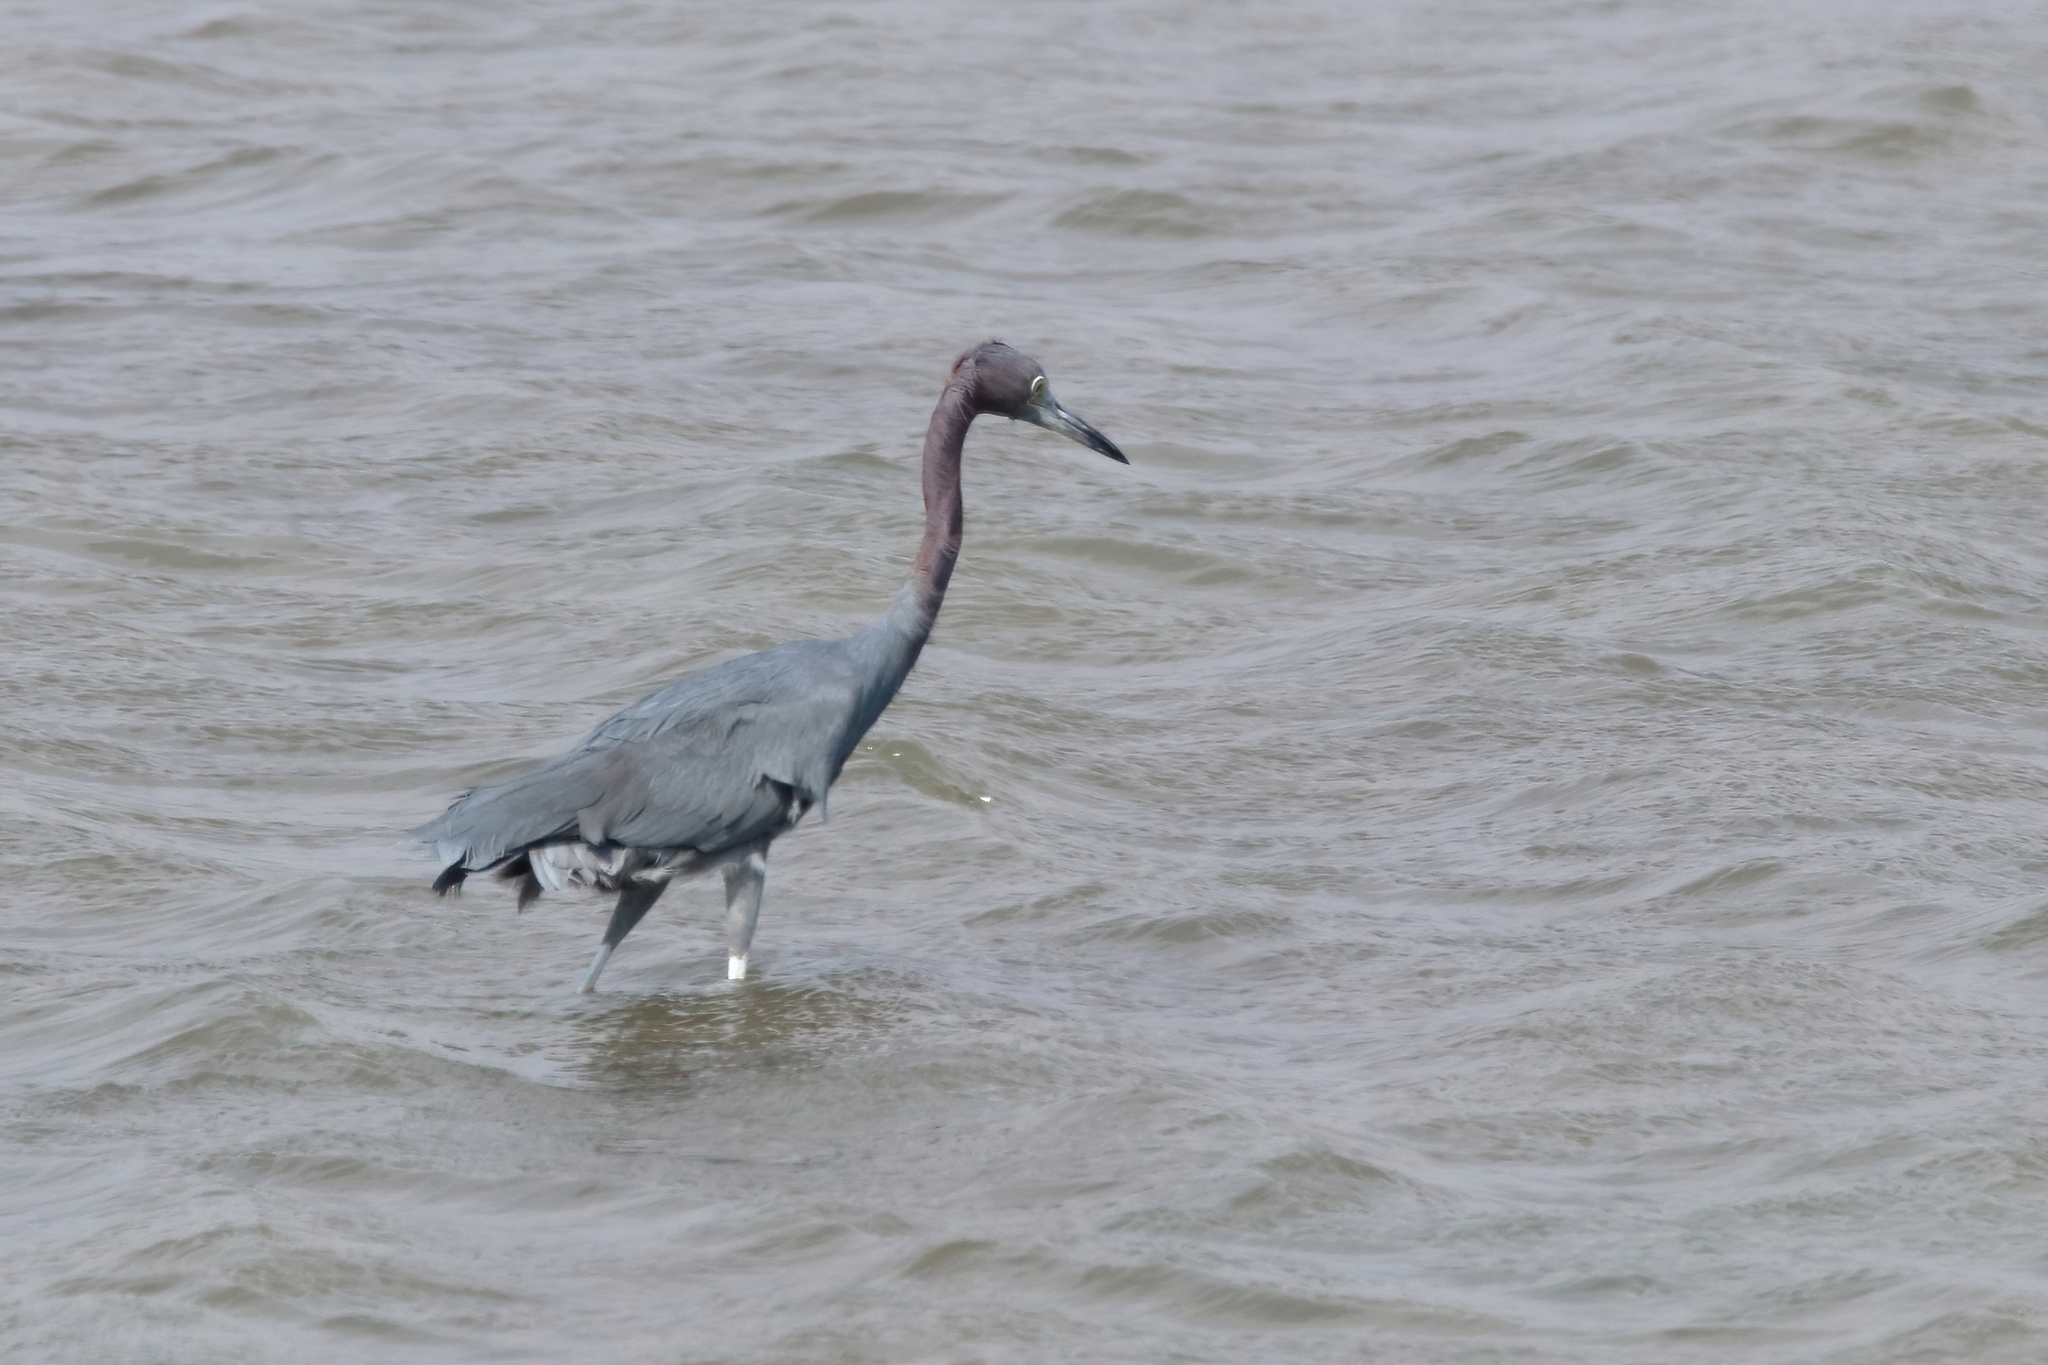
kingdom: Animalia
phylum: Chordata
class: Aves
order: Pelecaniformes
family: Ardeidae
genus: Egretta
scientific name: Egretta caerulea
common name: Little blue heron
